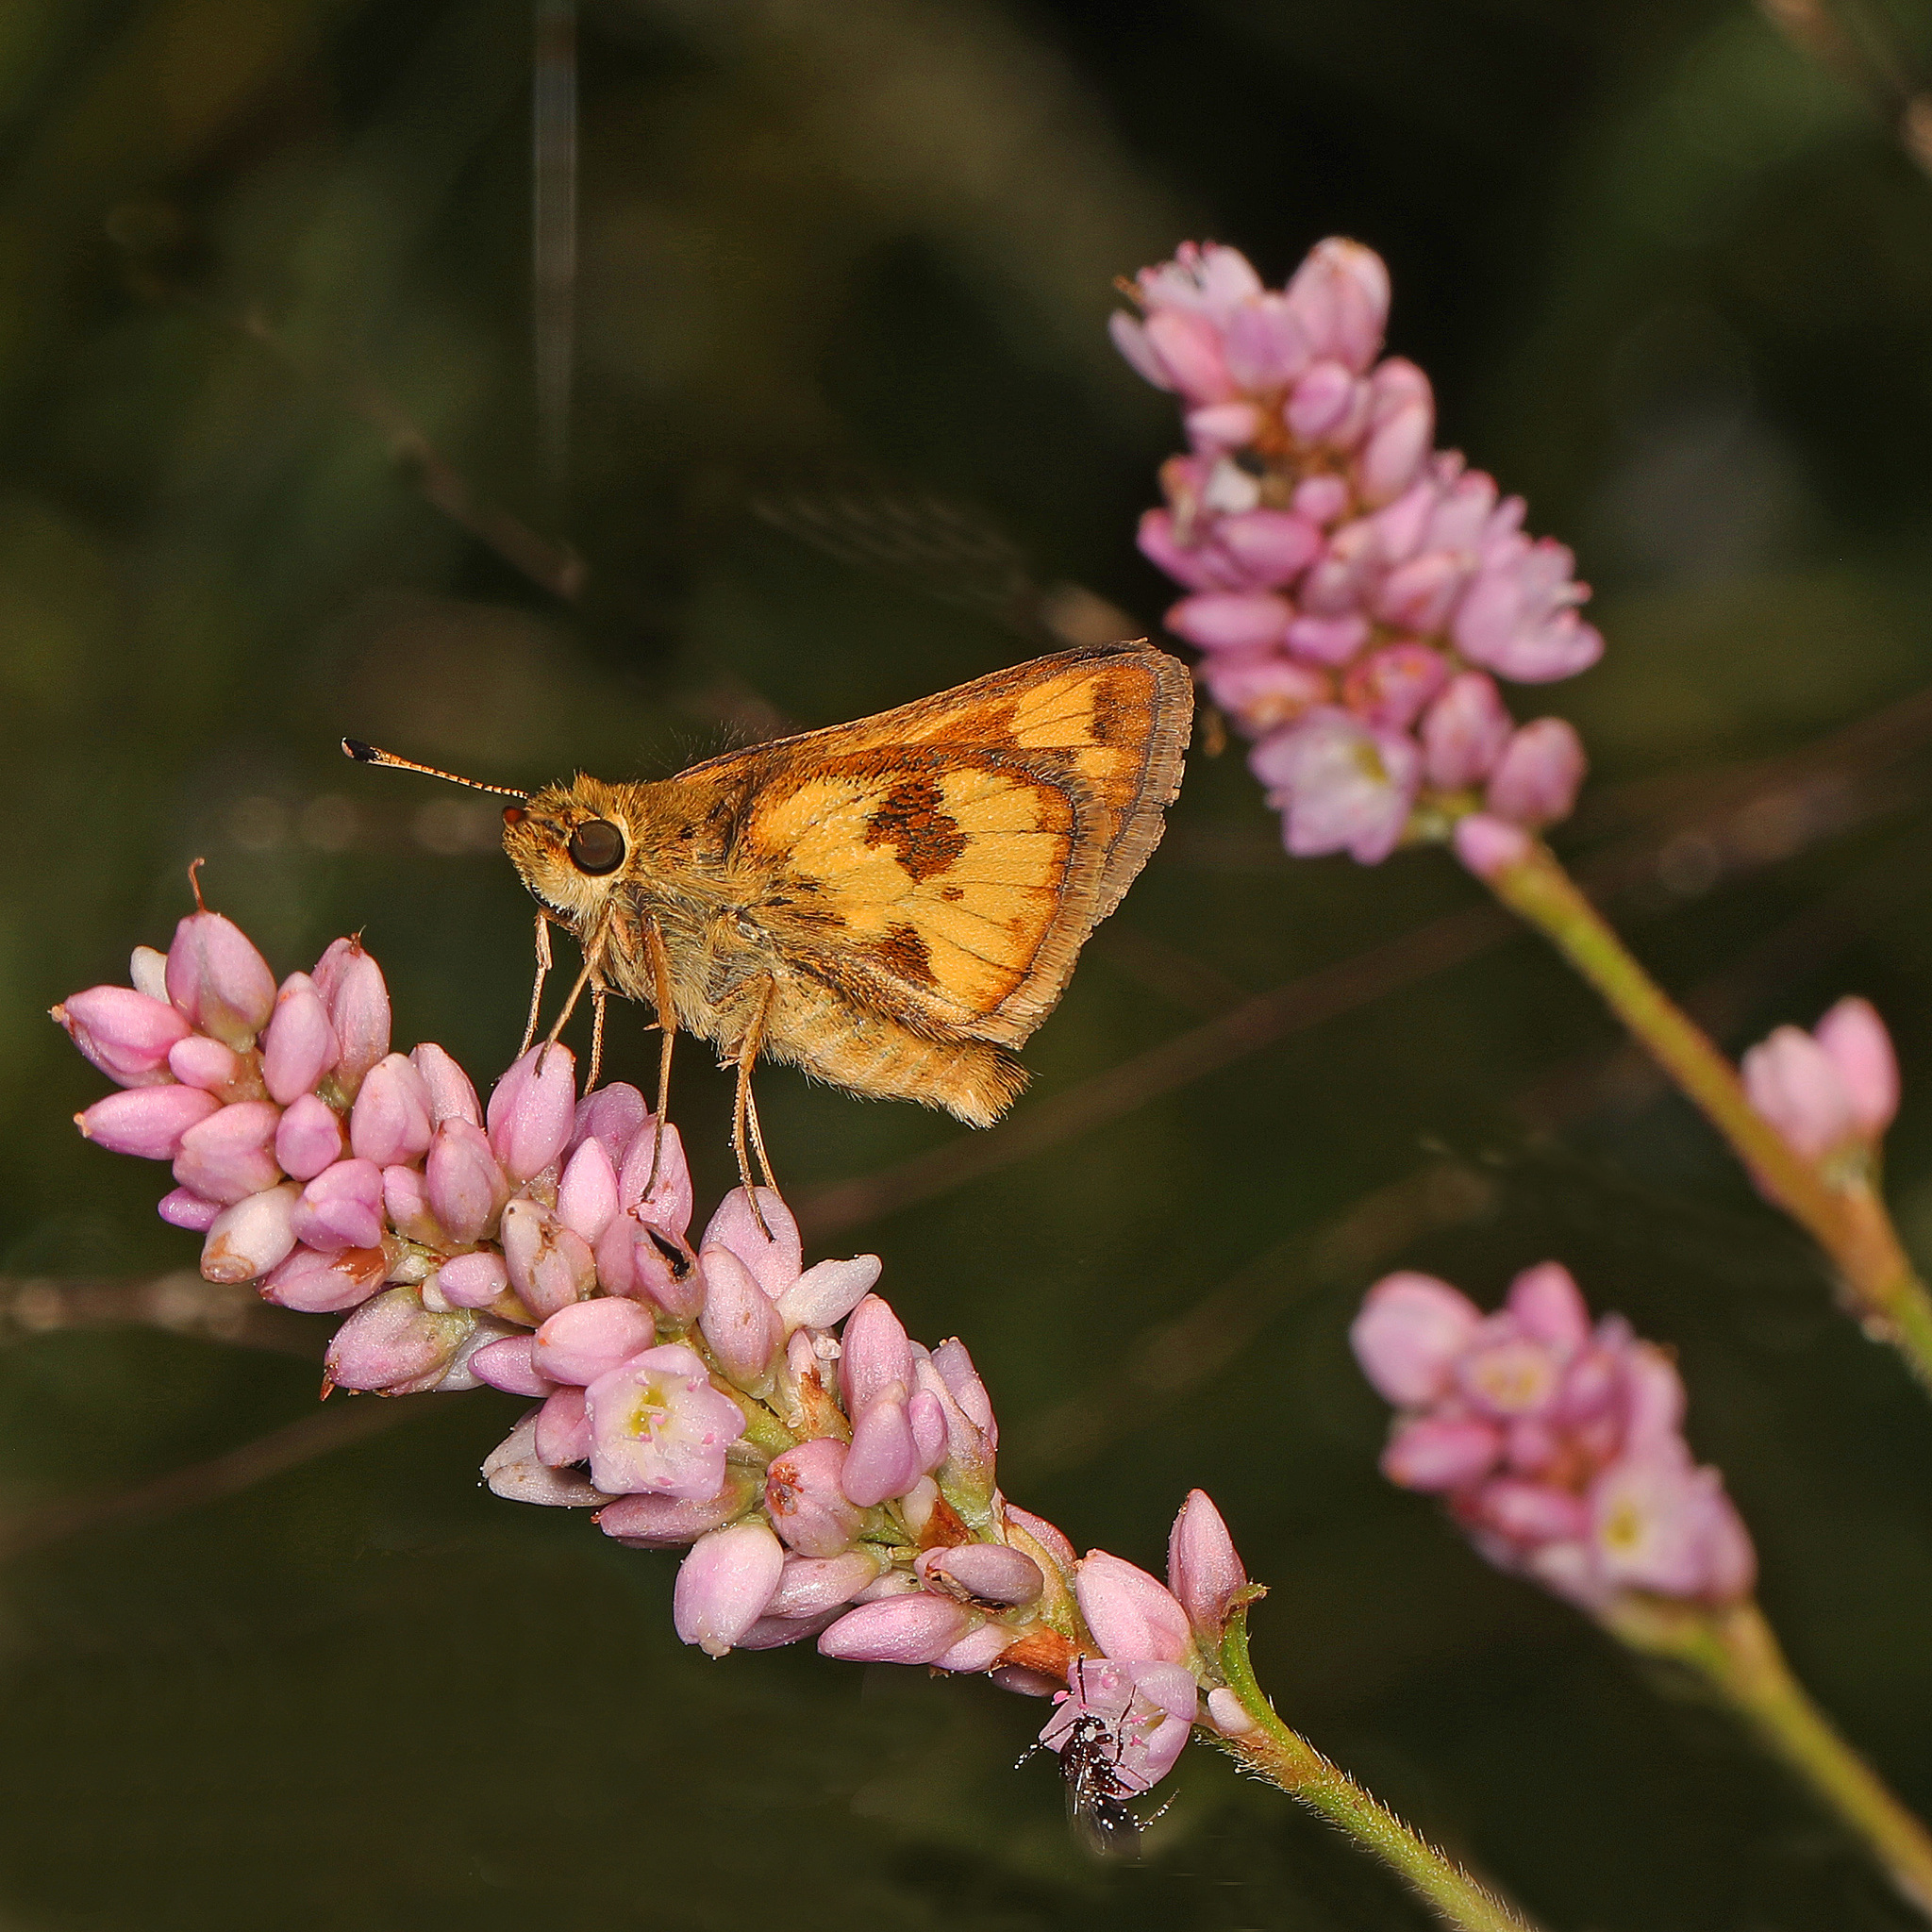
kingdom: Animalia
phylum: Arthropoda
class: Insecta
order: Lepidoptera
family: Hesperiidae
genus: Polites
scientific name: Polites coras
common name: Peck's skipper
